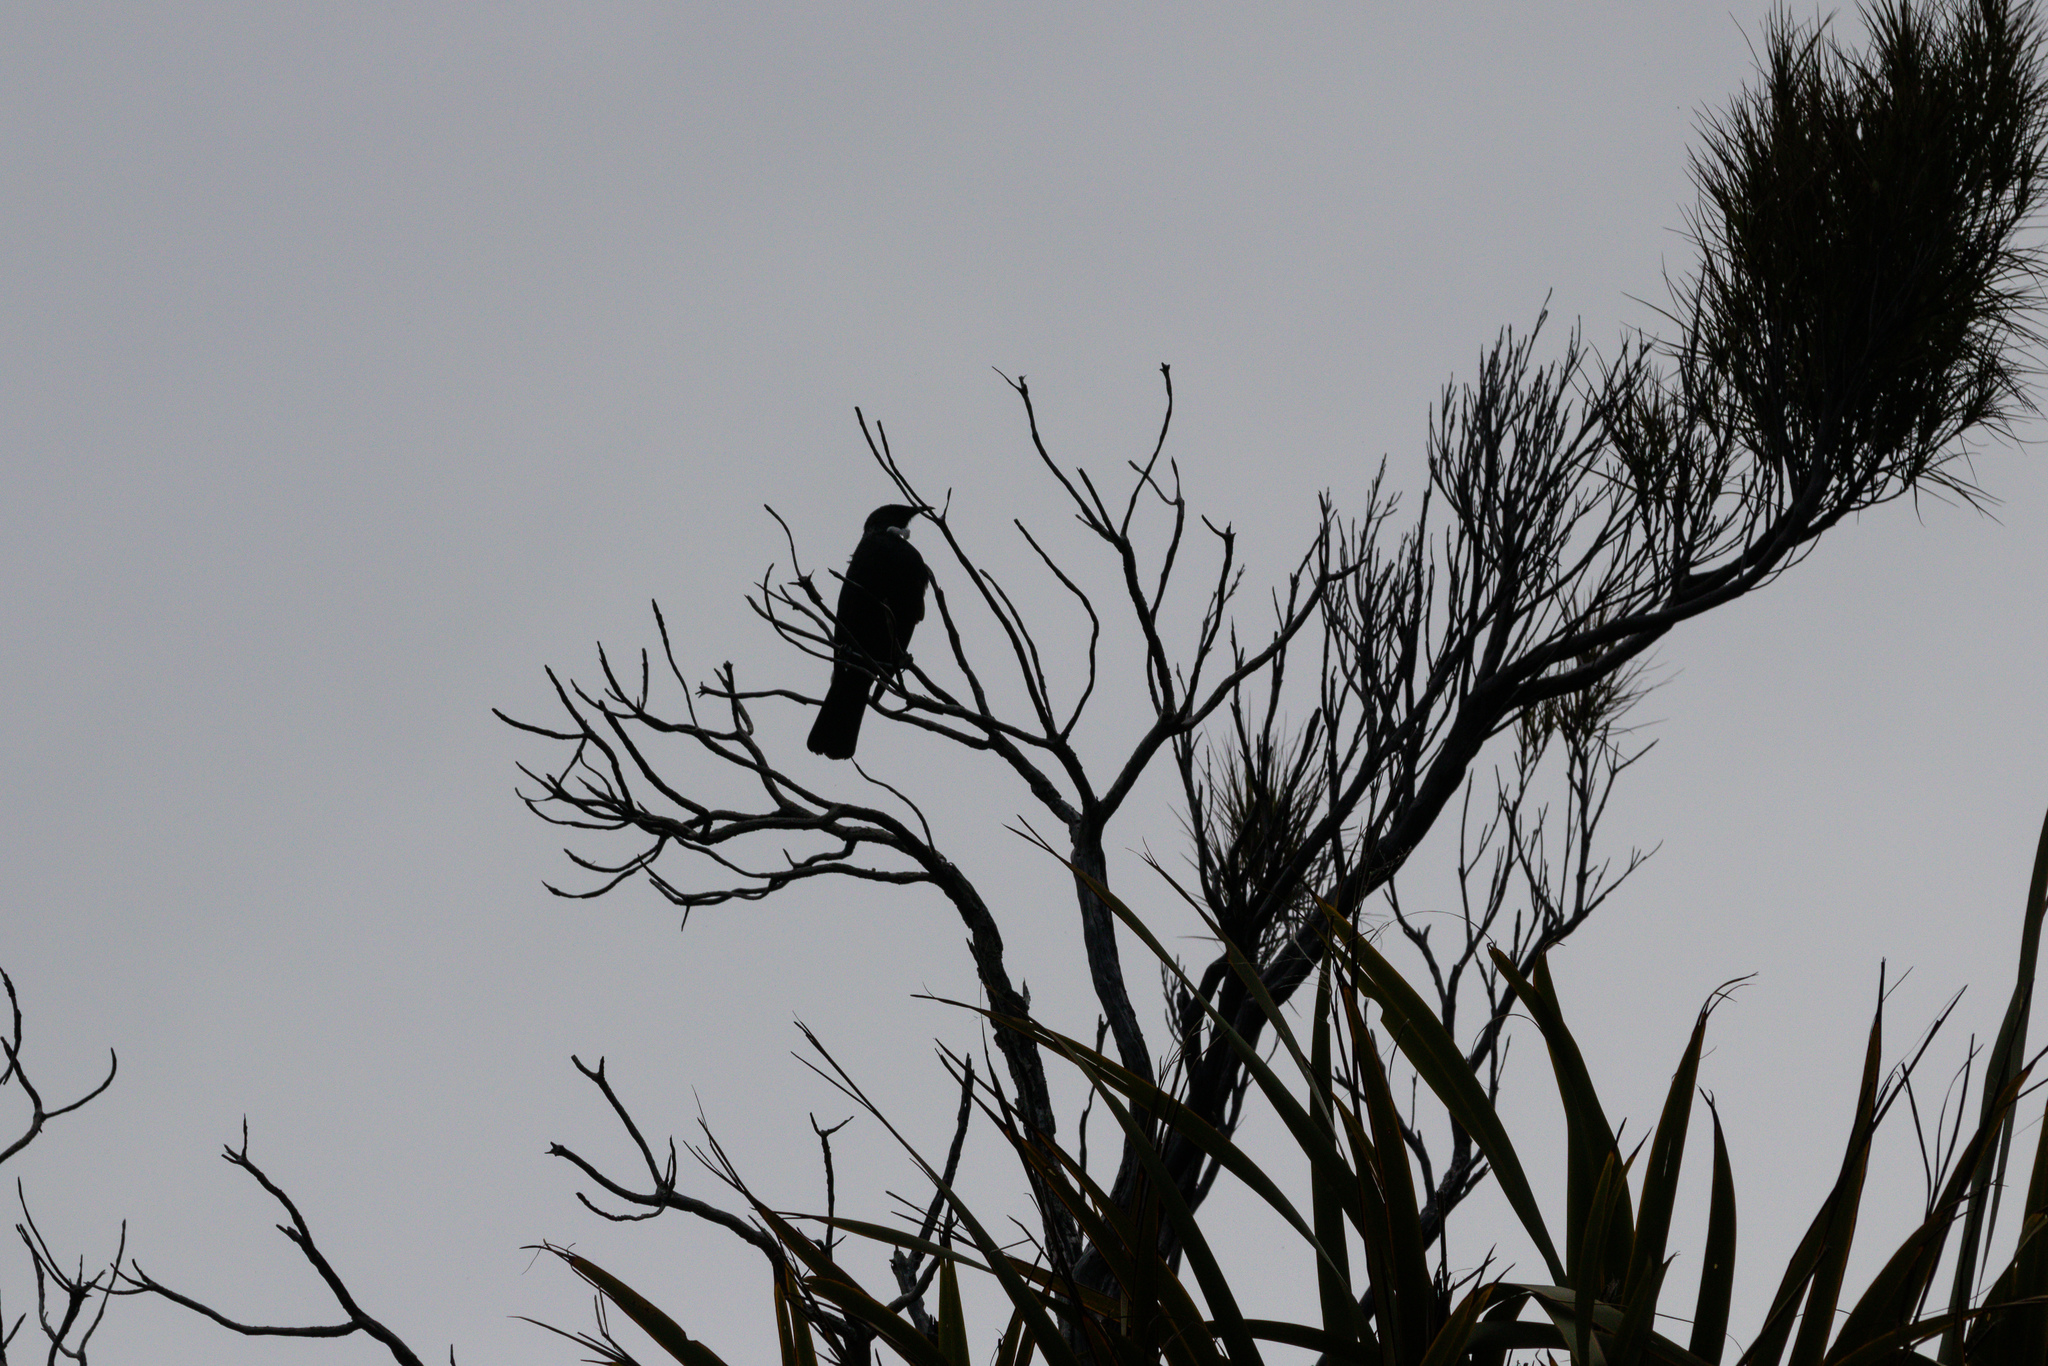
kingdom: Animalia
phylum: Chordata
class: Aves
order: Passeriformes
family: Meliphagidae
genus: Prosthemadera
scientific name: Prosthemadera novaeseelandiae
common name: Tui
